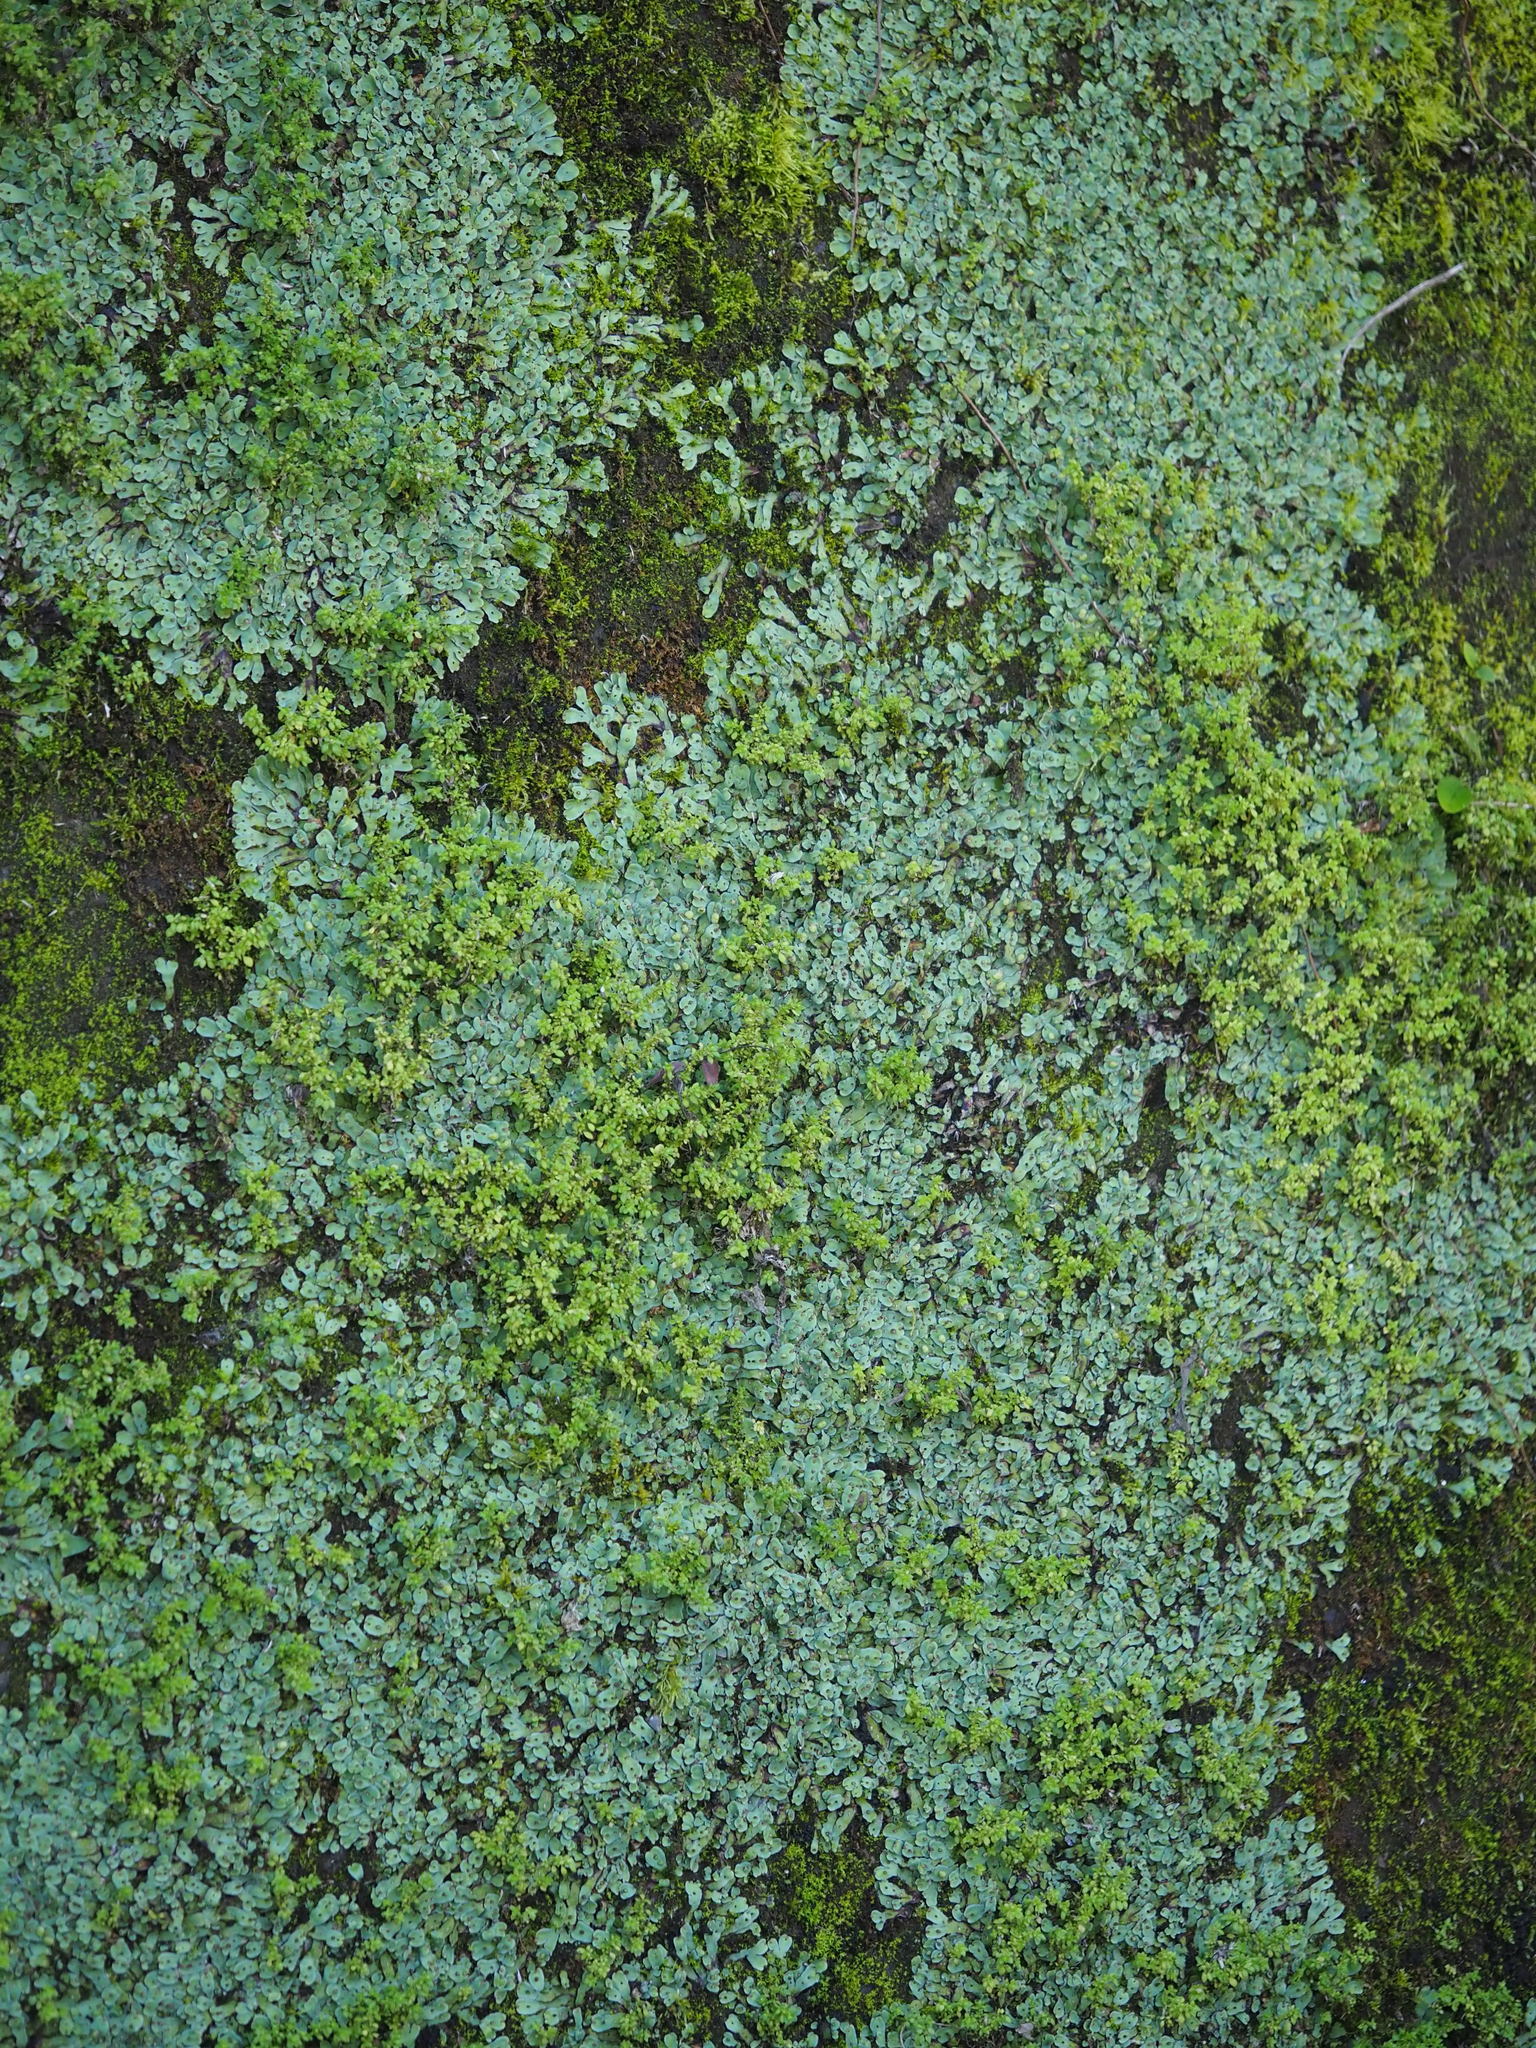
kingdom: Plantae
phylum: Marchantiophyta
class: Marchantiopsida
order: Marchantiales
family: Aytoniaceae
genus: Plagiochasma
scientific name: Plagiochasma rupestre
